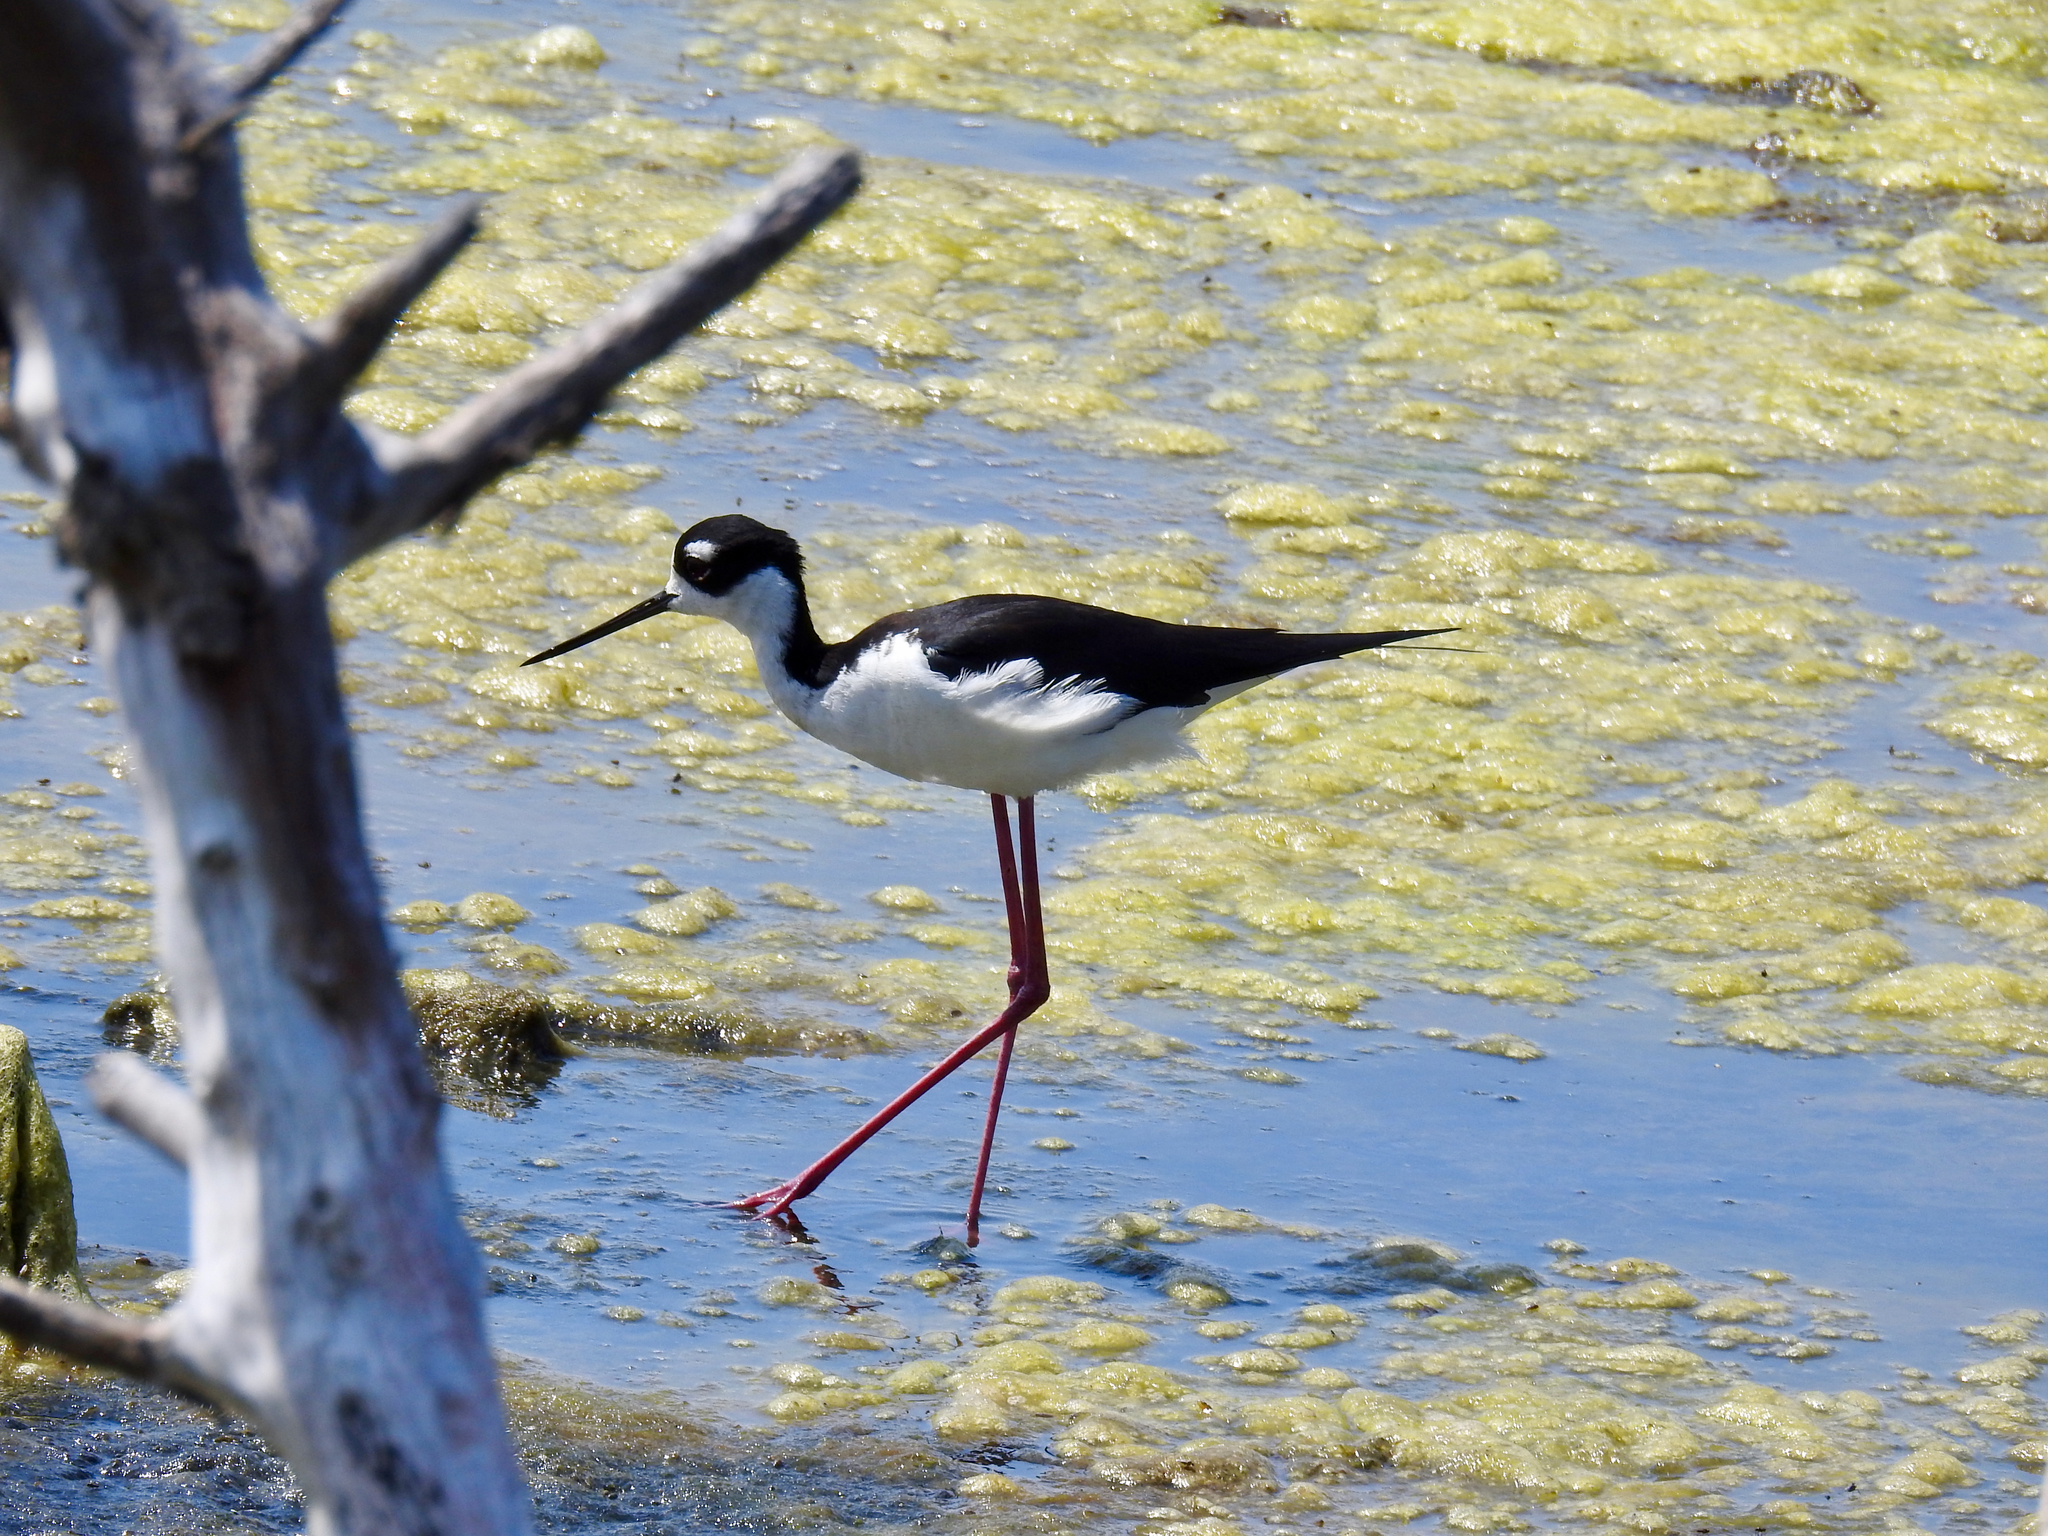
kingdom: Animalia
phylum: Chordata
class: Aves
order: Charadriiformes
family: Recurvirostridae
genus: Himantopus
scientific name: Himantopus mexicanus
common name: Black-necked stilt
